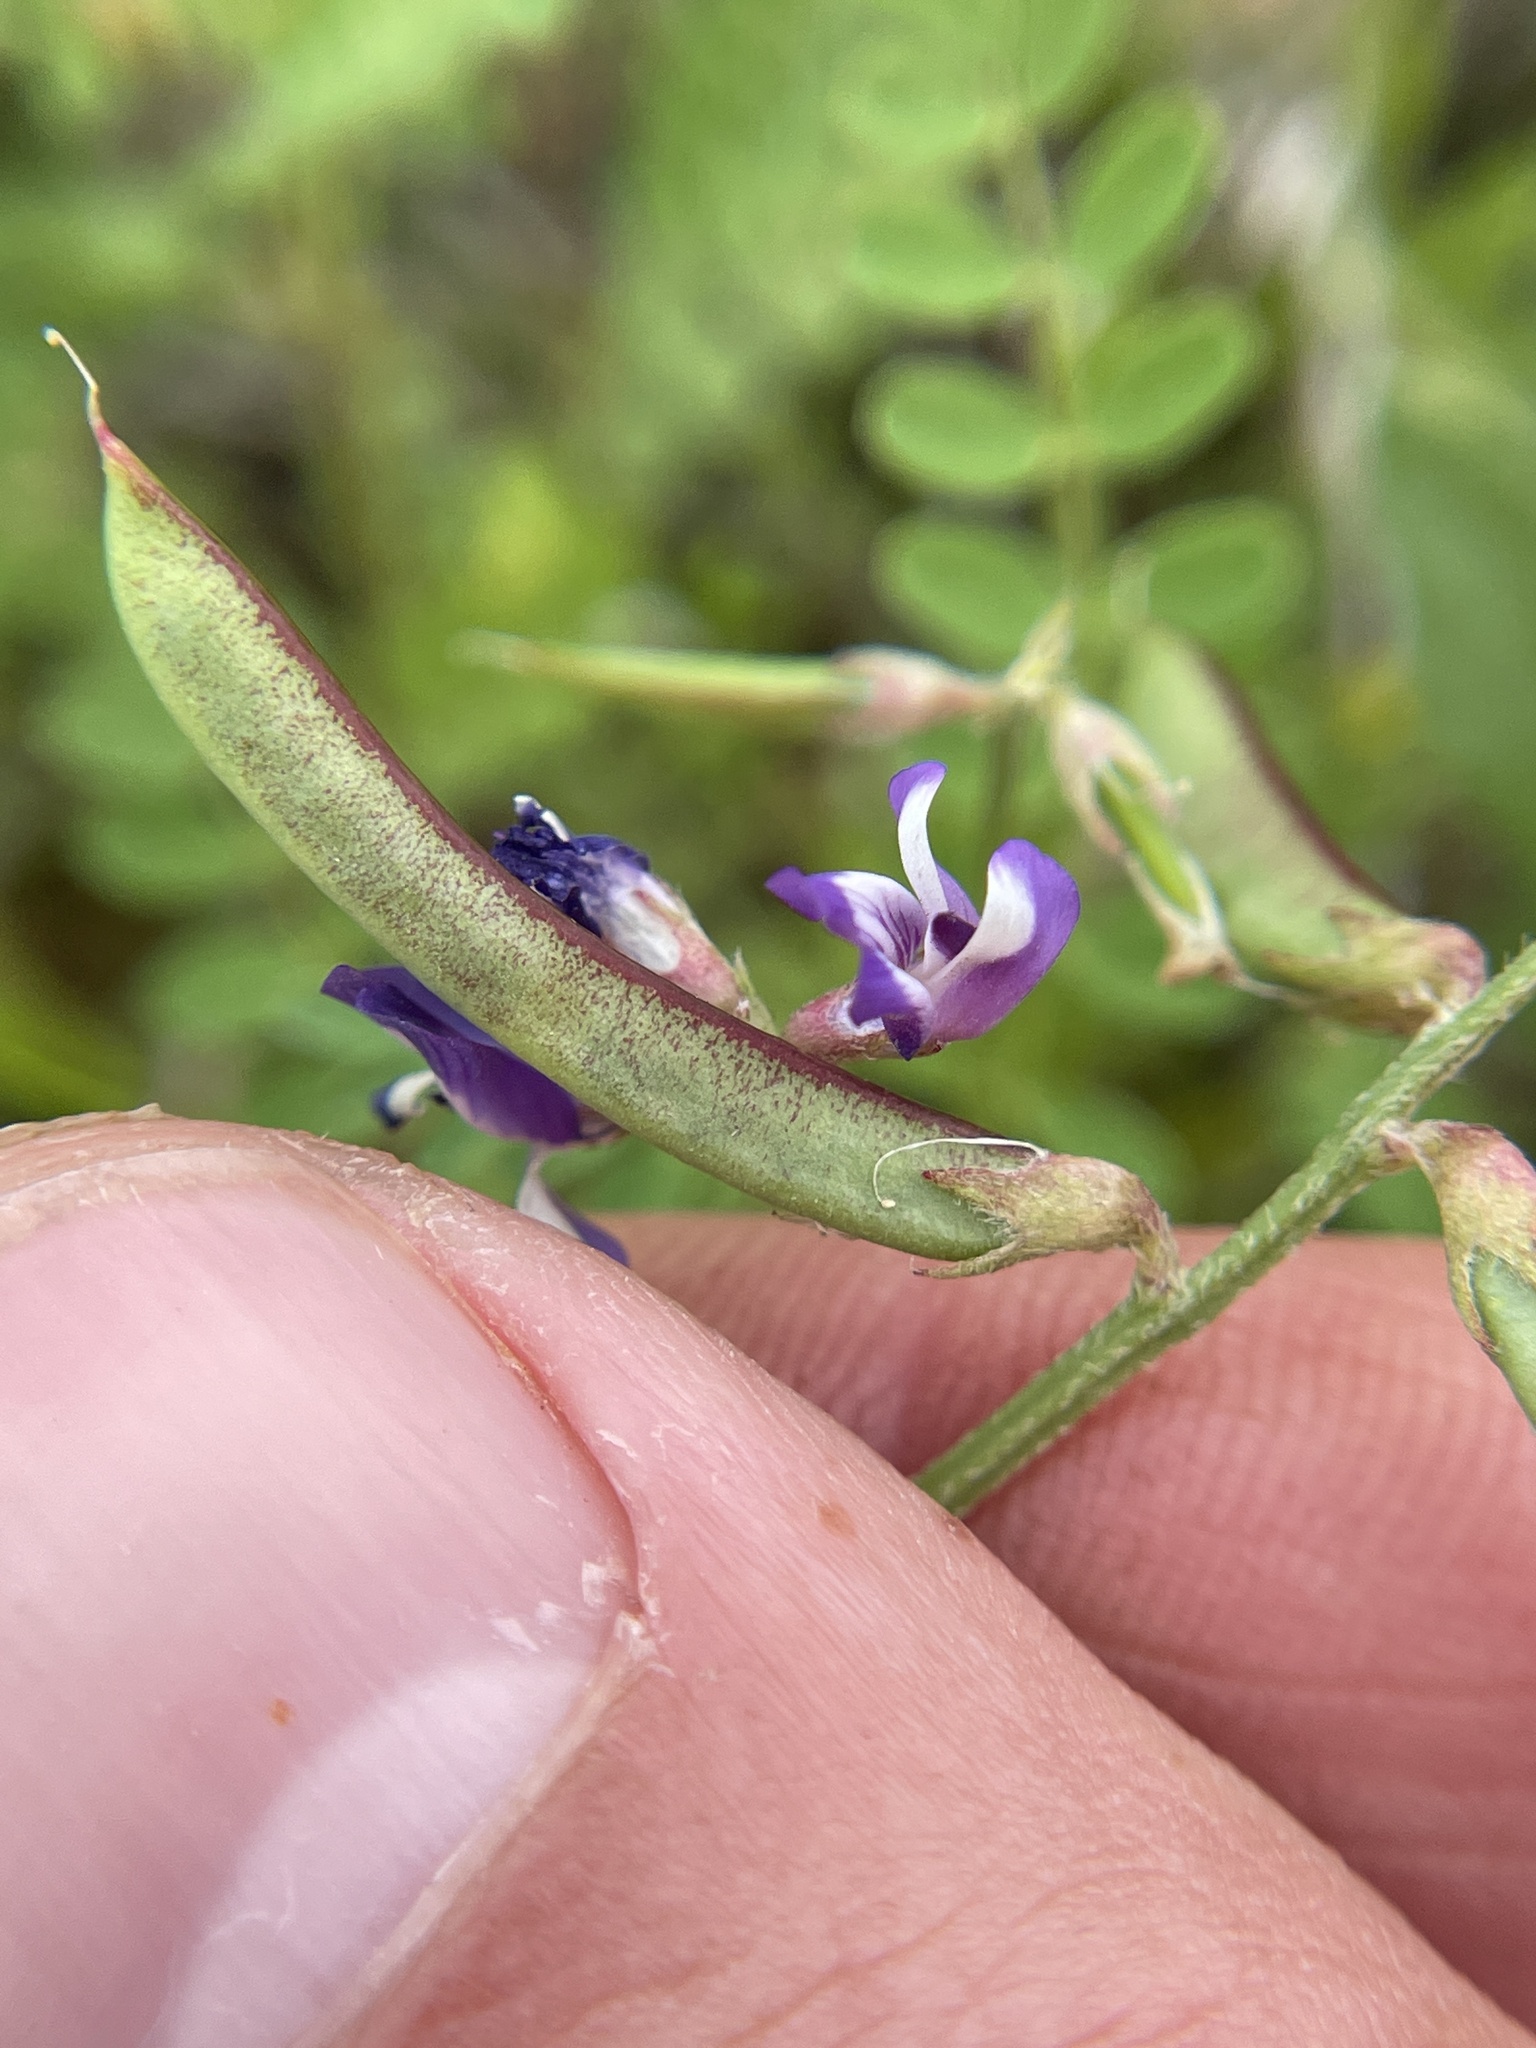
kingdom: Plantae
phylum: Tracheophyta
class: Magnoliopsida
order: Fabales
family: Fabaceae
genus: Astragalus
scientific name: Astragalus leptocarpus
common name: Bodkin milk-vetch
